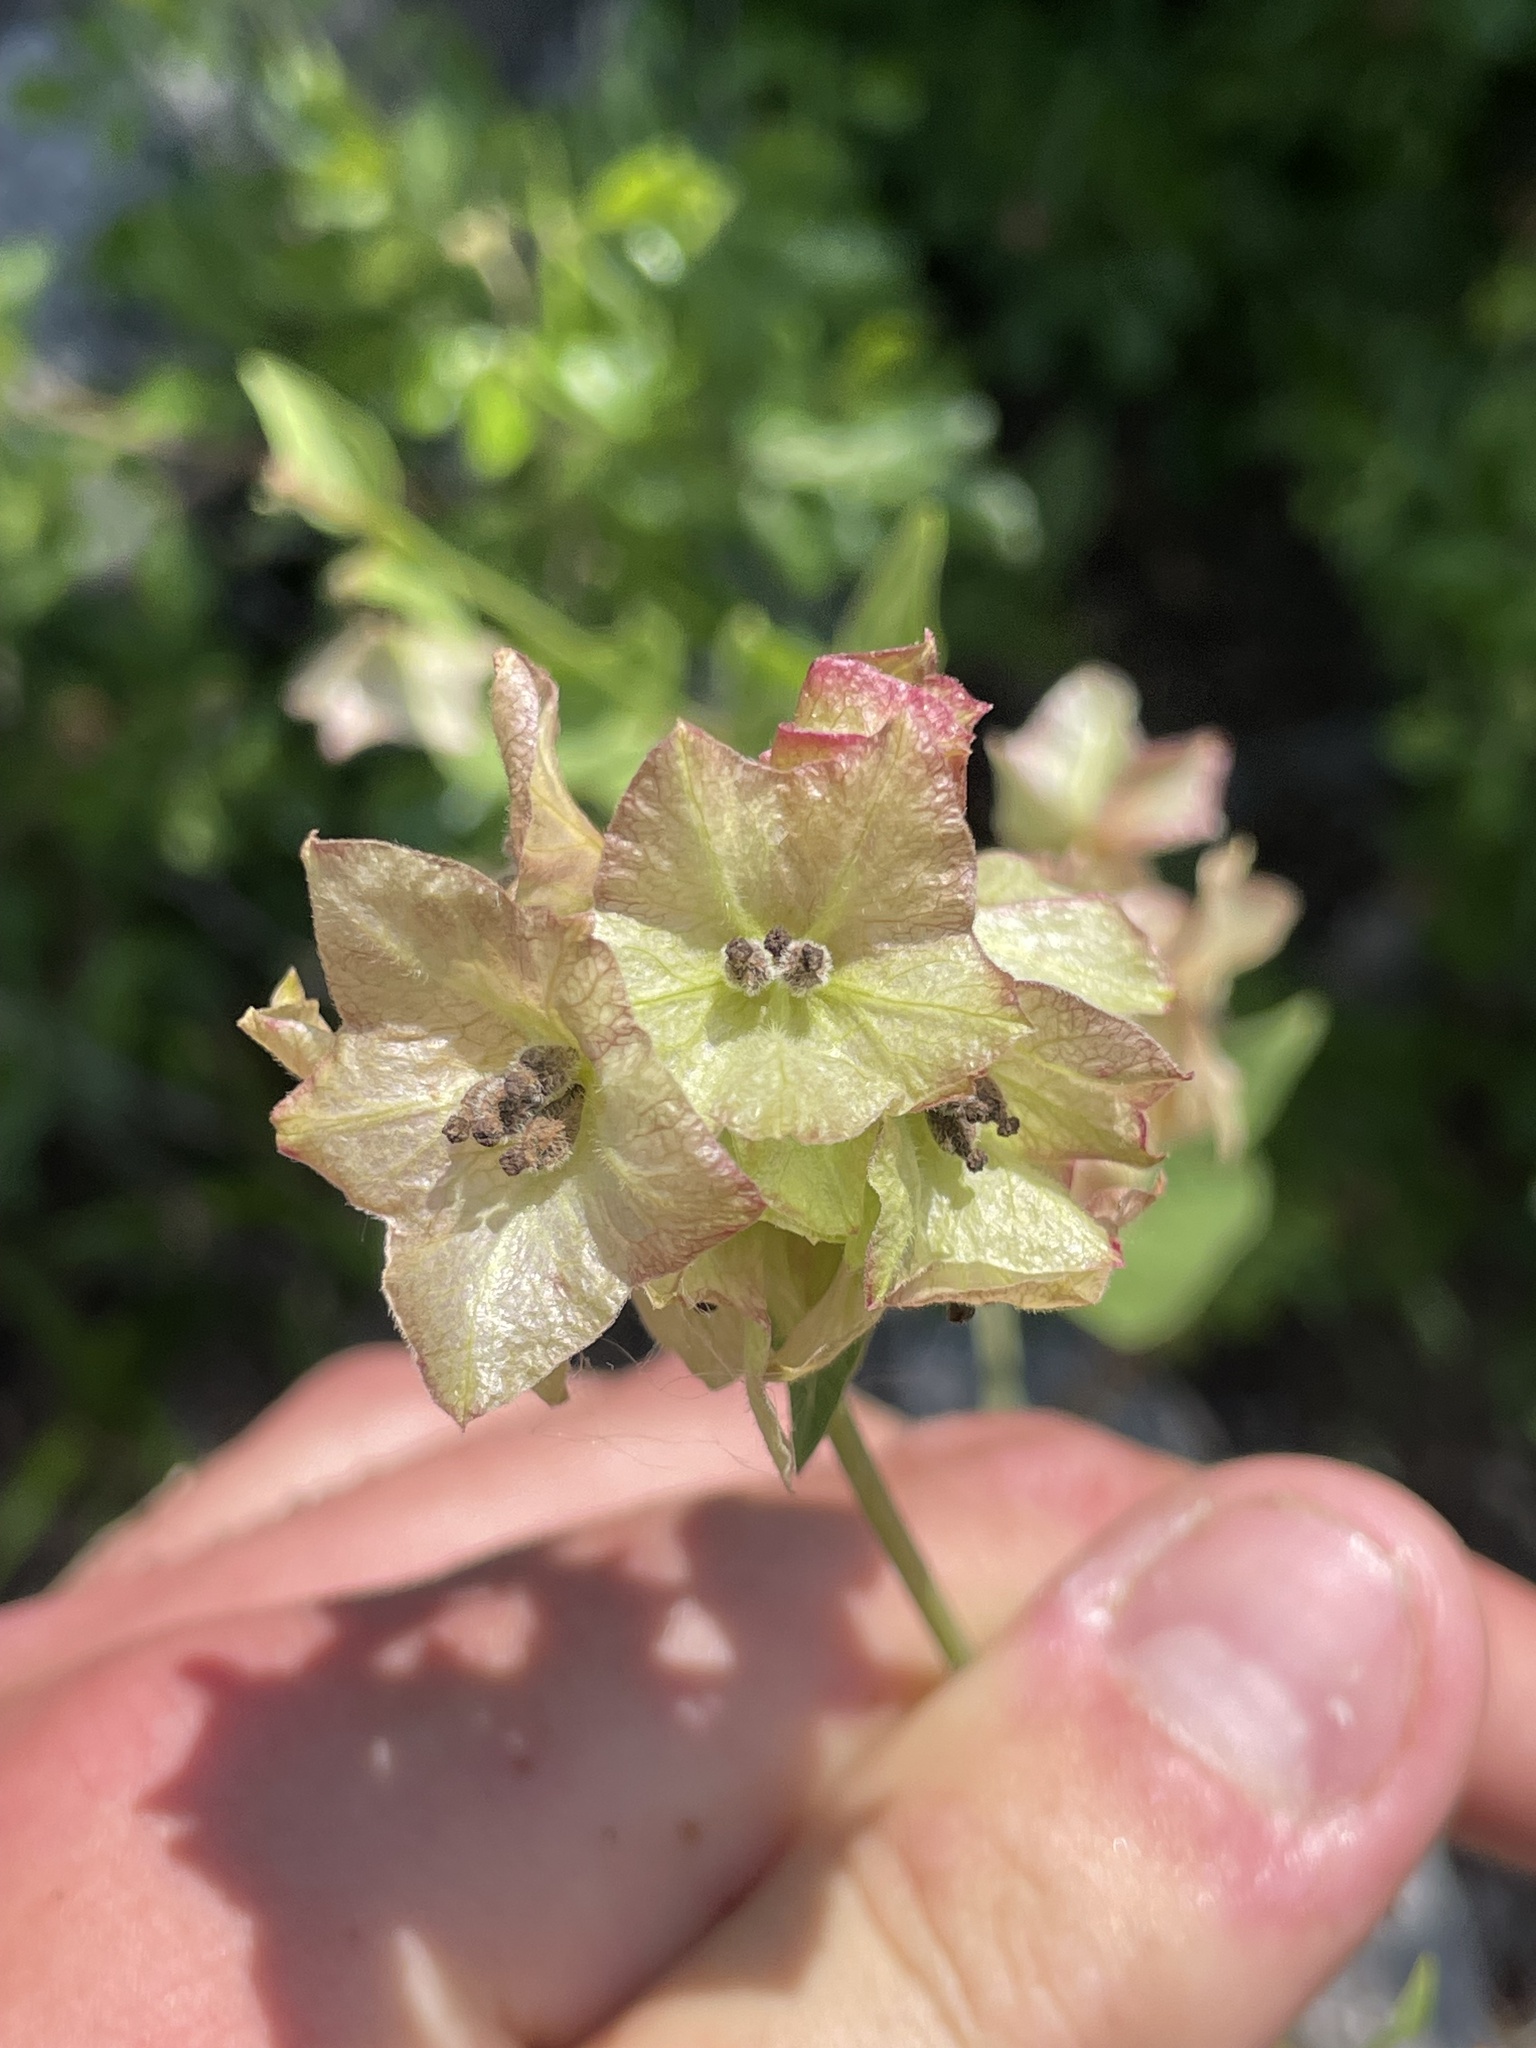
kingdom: Plantae
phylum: Tracheophyta
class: Magnoliopsida
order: Caryophyllales
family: Nyctaginaceae
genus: Mirabilis
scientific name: Mirabilis albida
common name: Hairy four-o'clock
